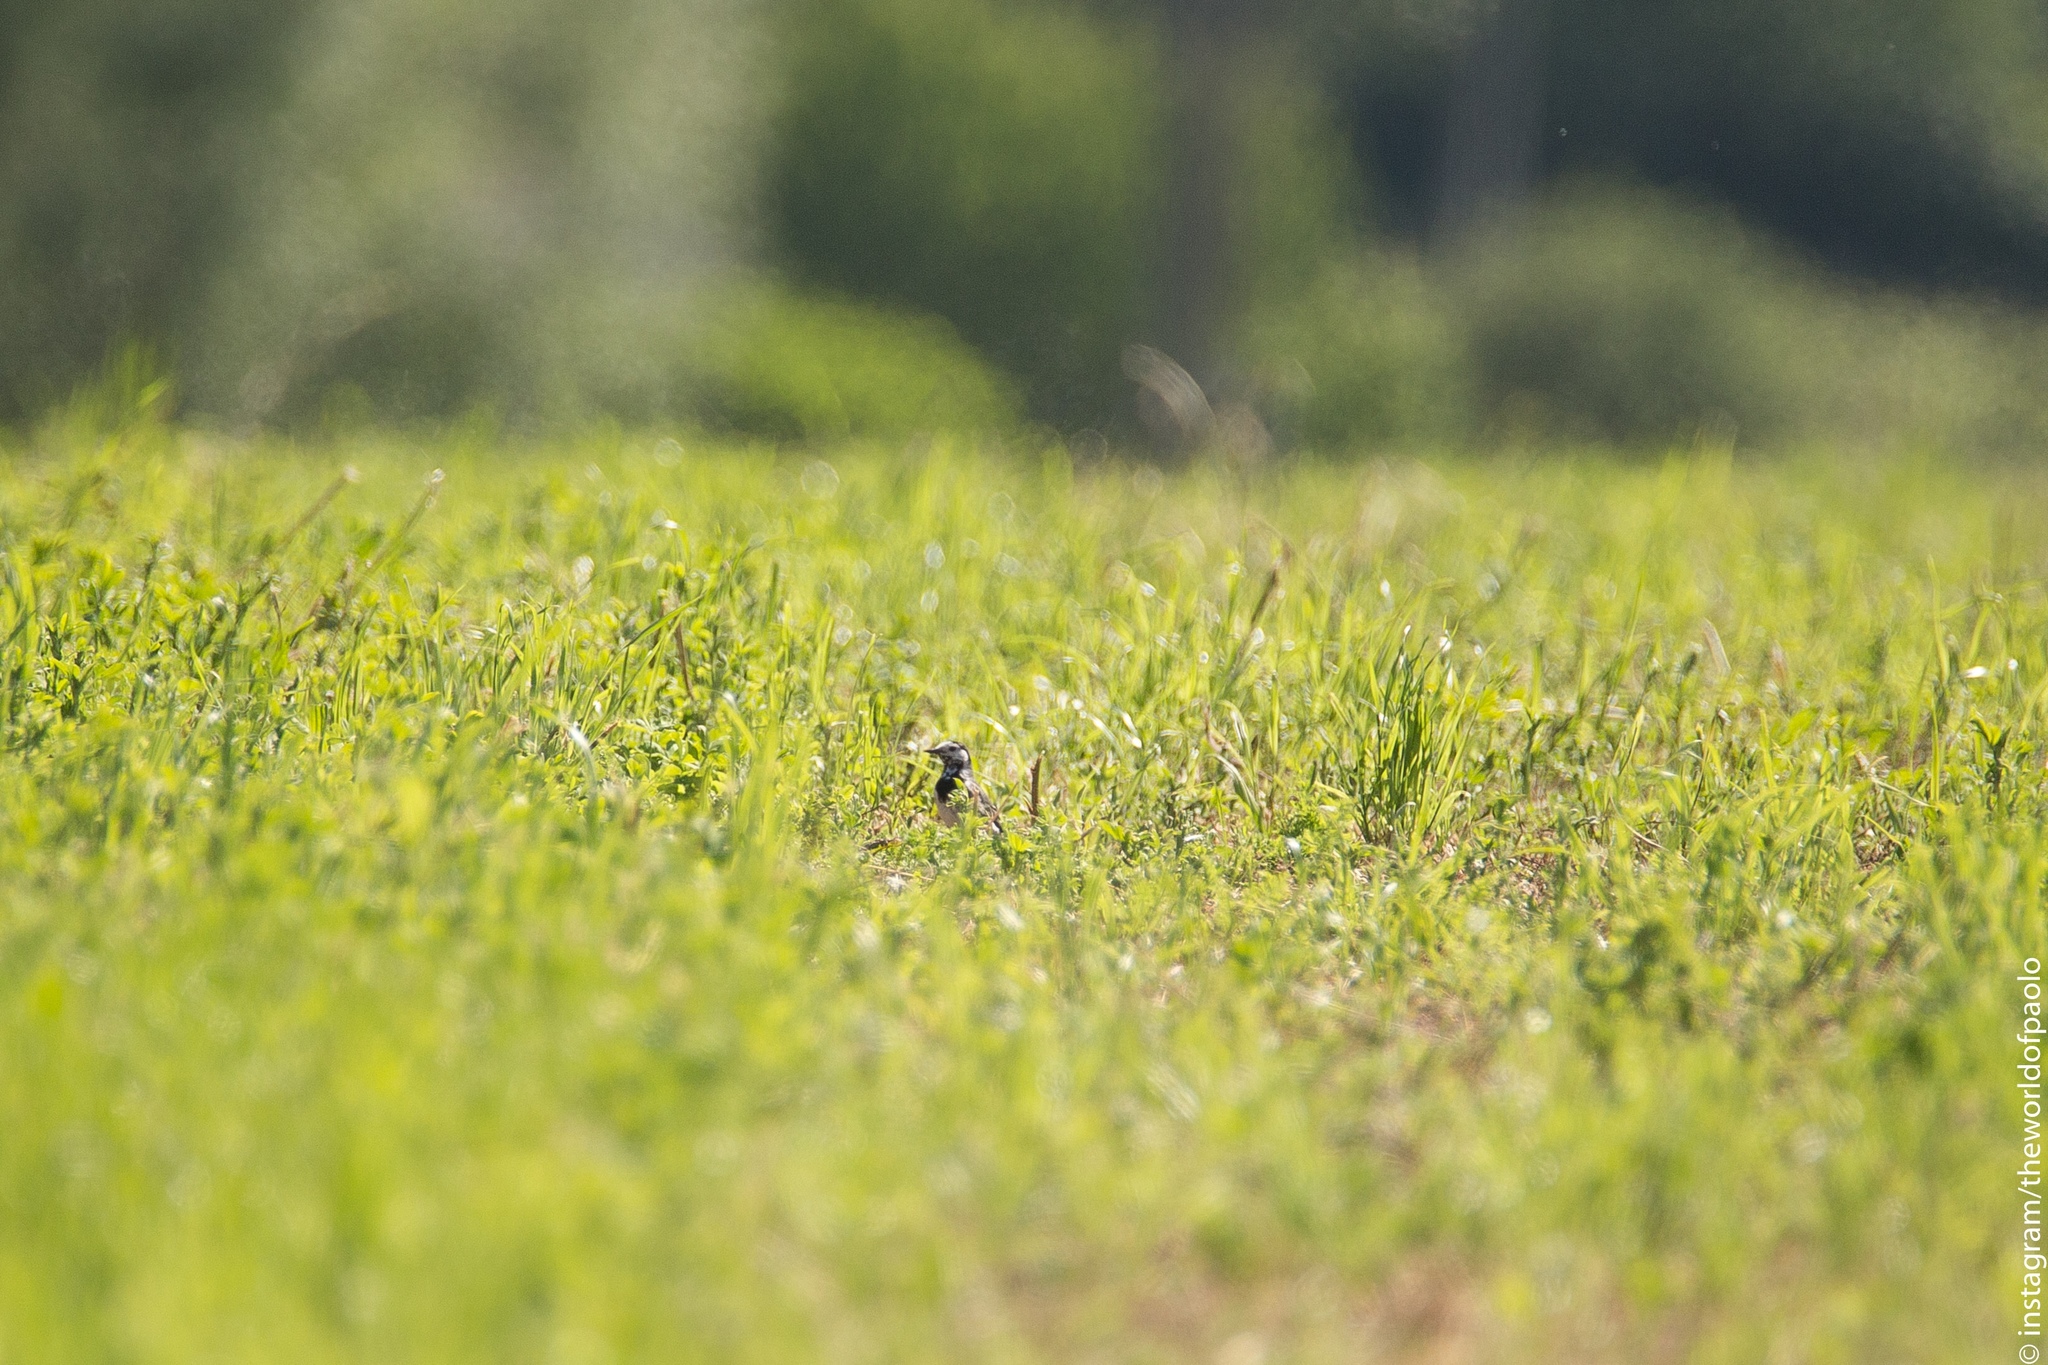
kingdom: Animalia
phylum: Chordata
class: Aves
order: Passeriformes
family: Motacillidae
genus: Motacilla
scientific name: Motacilla alba
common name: White wagtail
